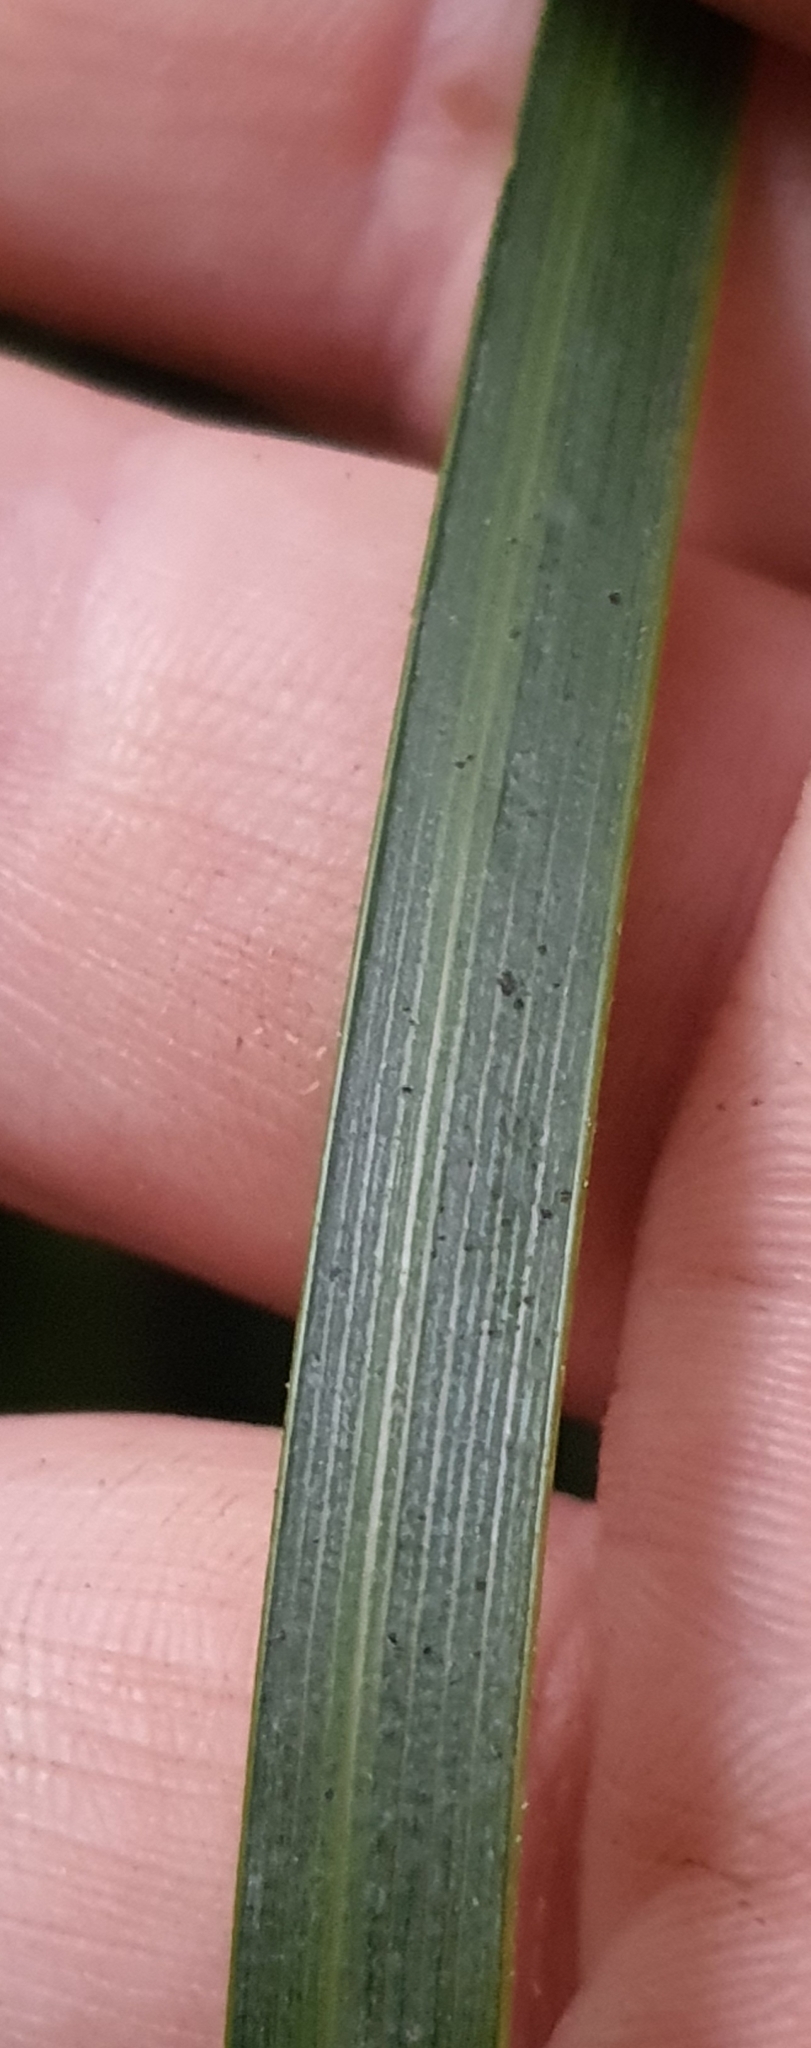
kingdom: Plantae
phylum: Tracheophyta
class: Liliopsida
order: Asparagales
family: Iridaceae
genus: Libertia
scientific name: Libertia ixioides
